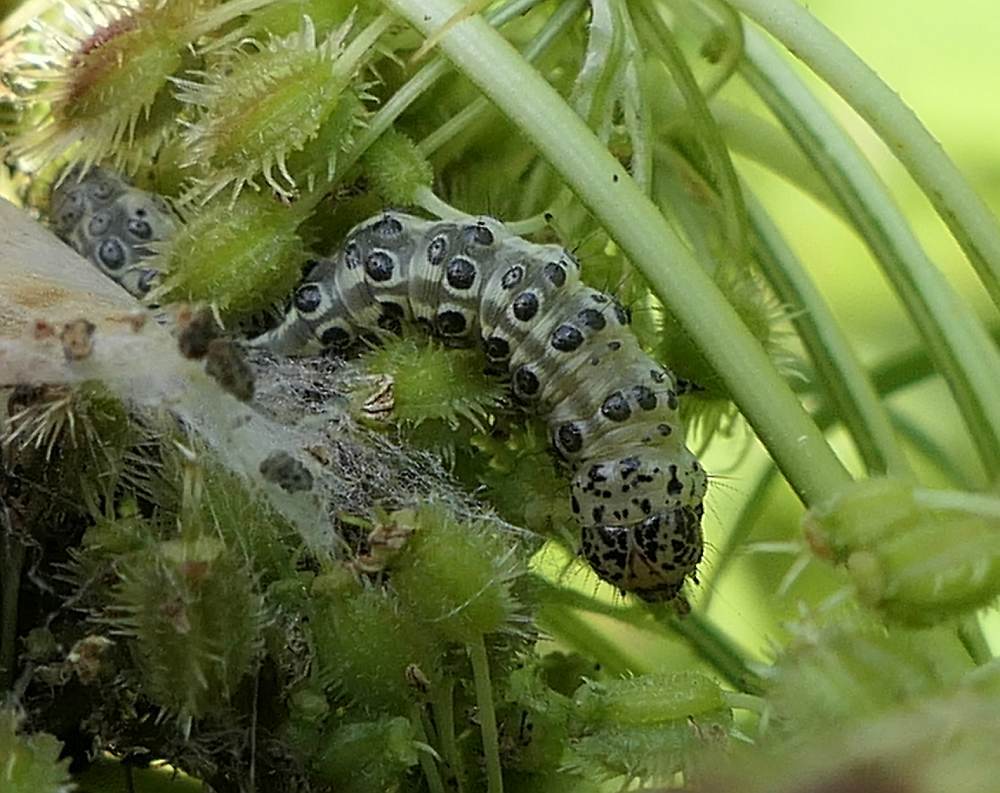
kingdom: Animalia
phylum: Arthropoda
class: Insecta
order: Lepidoptera
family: Crambidae
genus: Sitochroa
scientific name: Sitochroa palealis
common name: Greenish-yellow sitochroa moth
